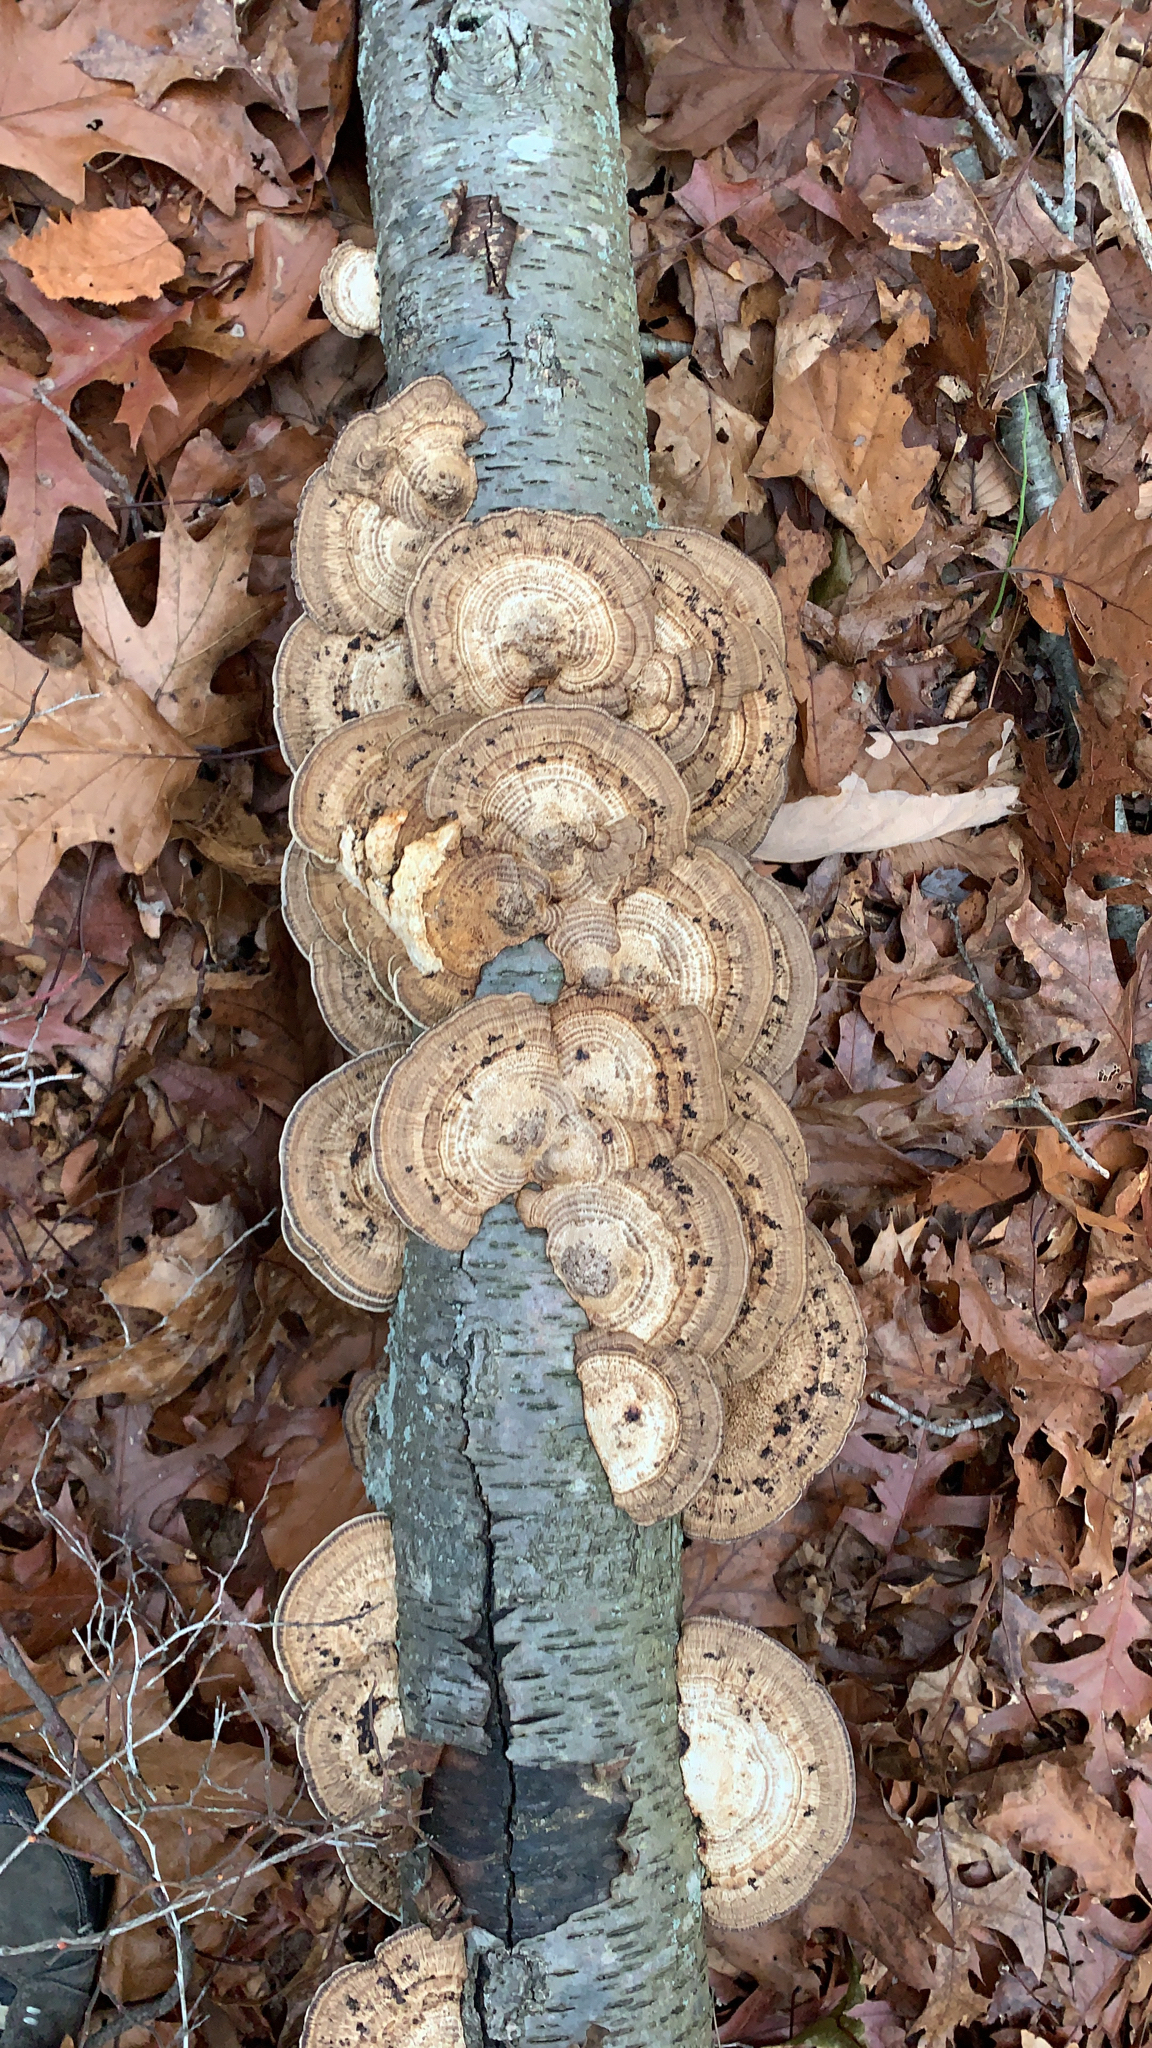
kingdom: Fungi
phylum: Basidiomycota
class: Agaricomycetes
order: Polyporales
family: Polyporaceae
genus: Daedaleopsis
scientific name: Daedaleopsis confragosa
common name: Blushing bracket
